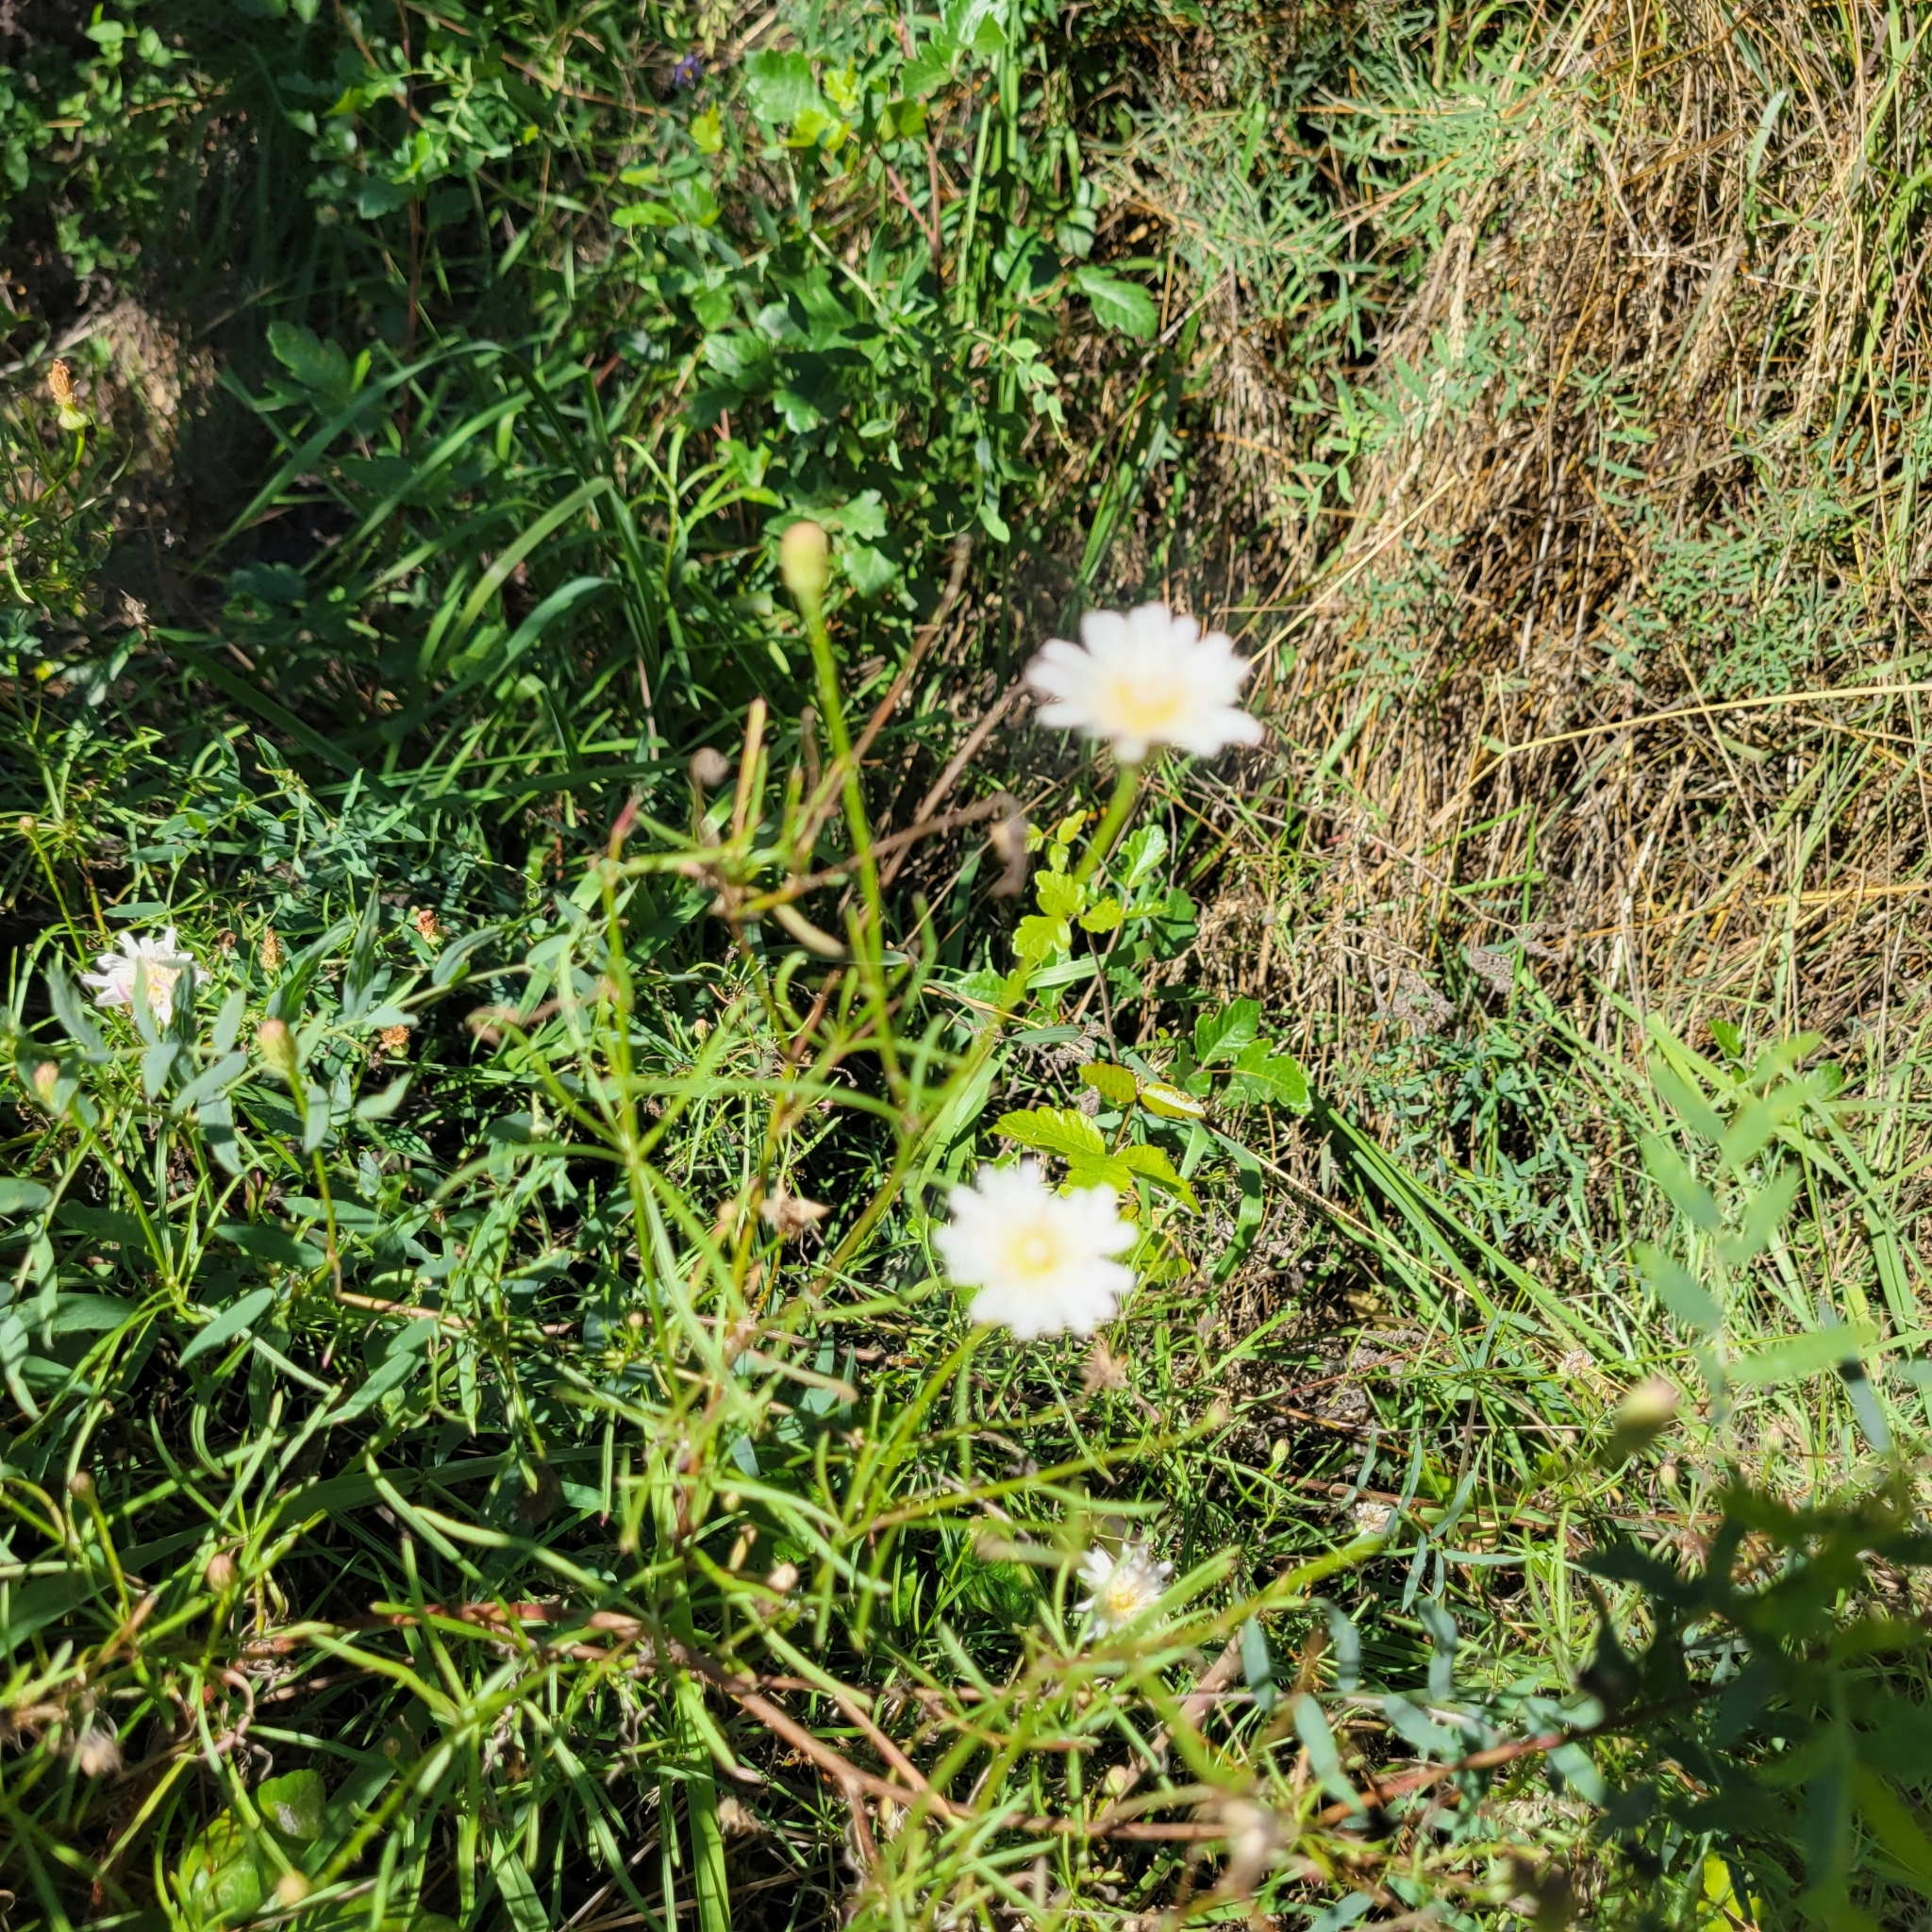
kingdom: Plantae
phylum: Tracheophyta
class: Magnoliopsida
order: Asterales
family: Asteraceae
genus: Malacothrix
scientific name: Malacothrix saxatilis
